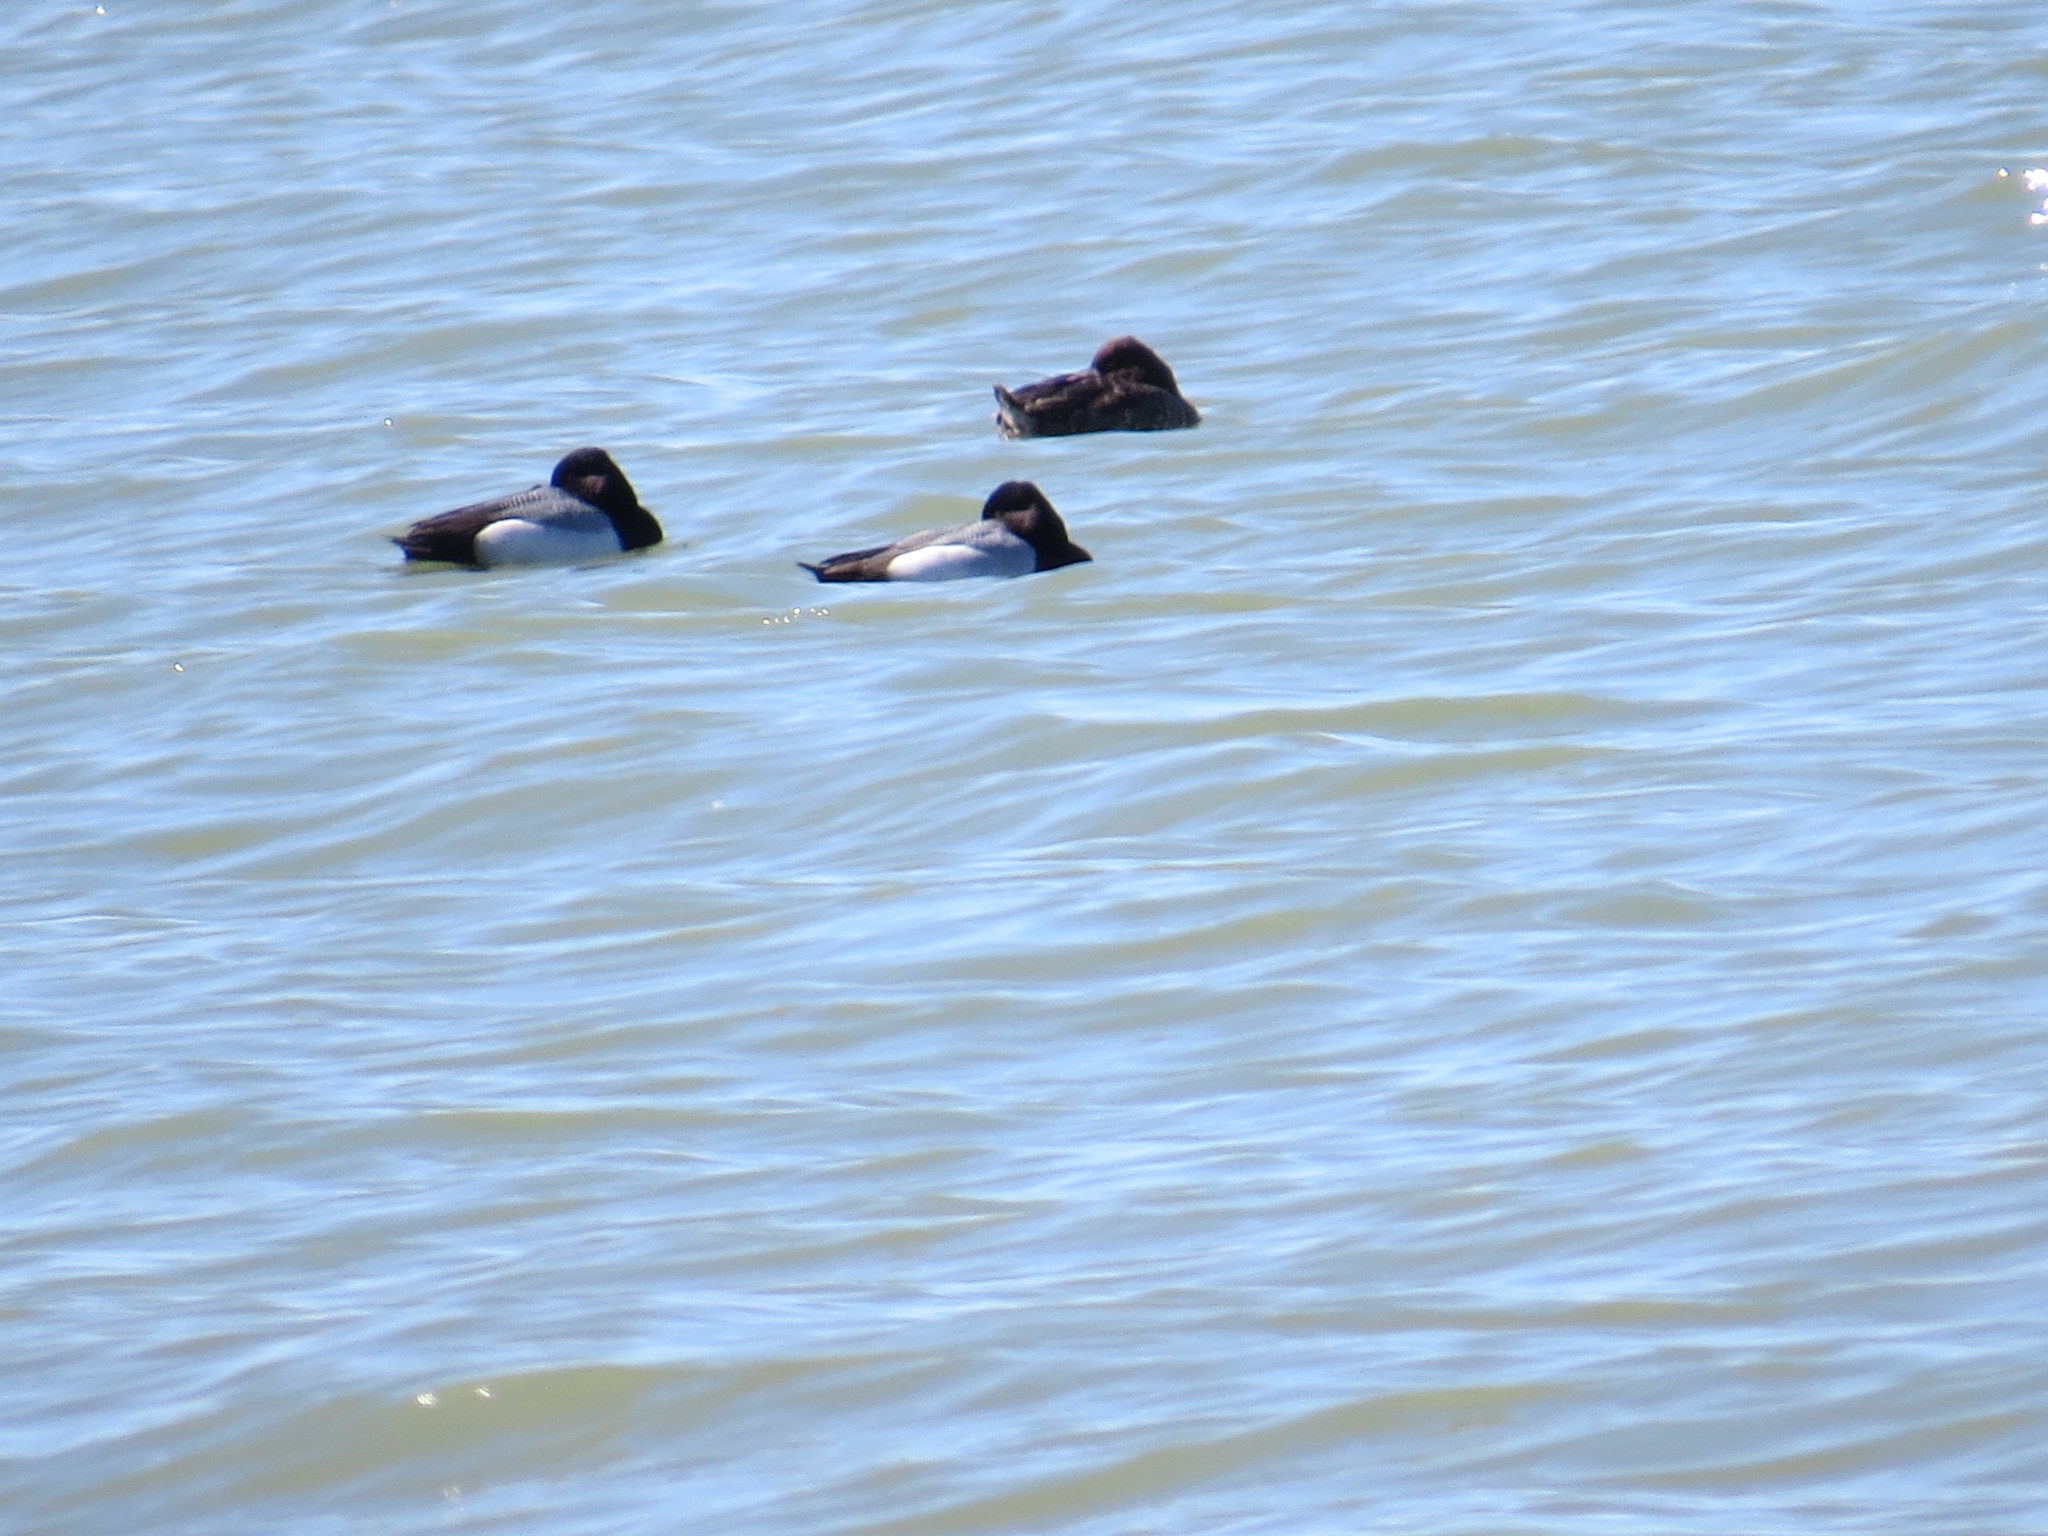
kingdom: Animalia
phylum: Chordata
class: Aves
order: Anseriformes
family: Anatidae
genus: Aythya
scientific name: Aythya marila
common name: Greater scaup
